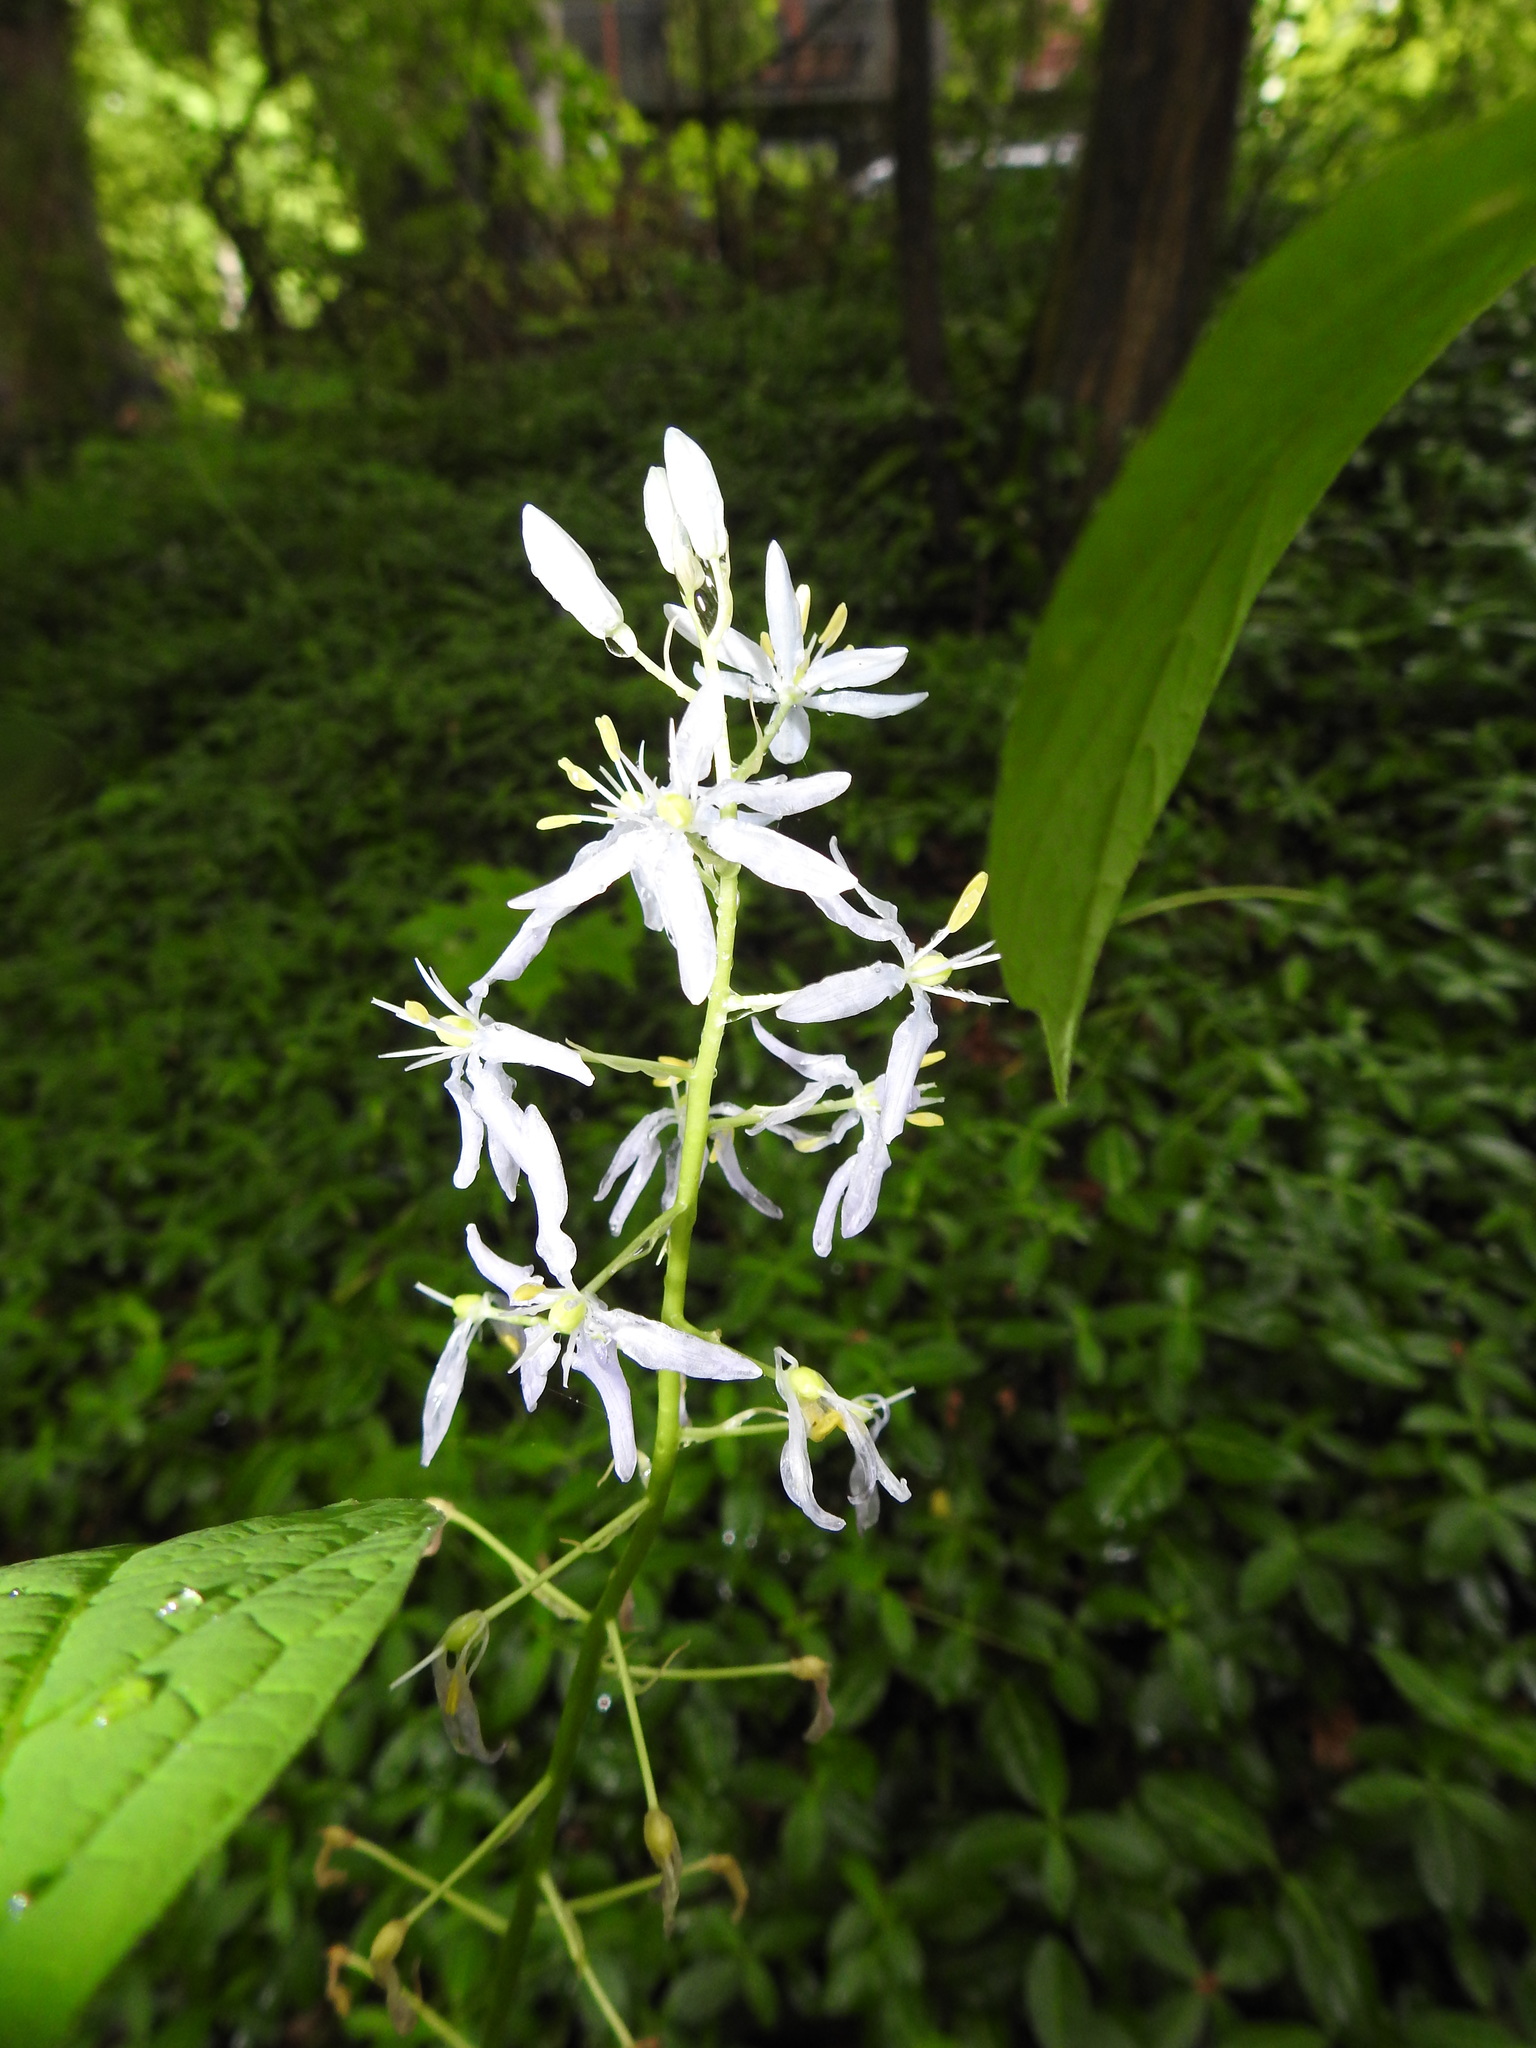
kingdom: Plantae
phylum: Tracheophyta
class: Liliopsida
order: Asparagales
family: Asparagaceae
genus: Camassia
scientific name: Camassia scilloides
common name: Wild hyacinth
